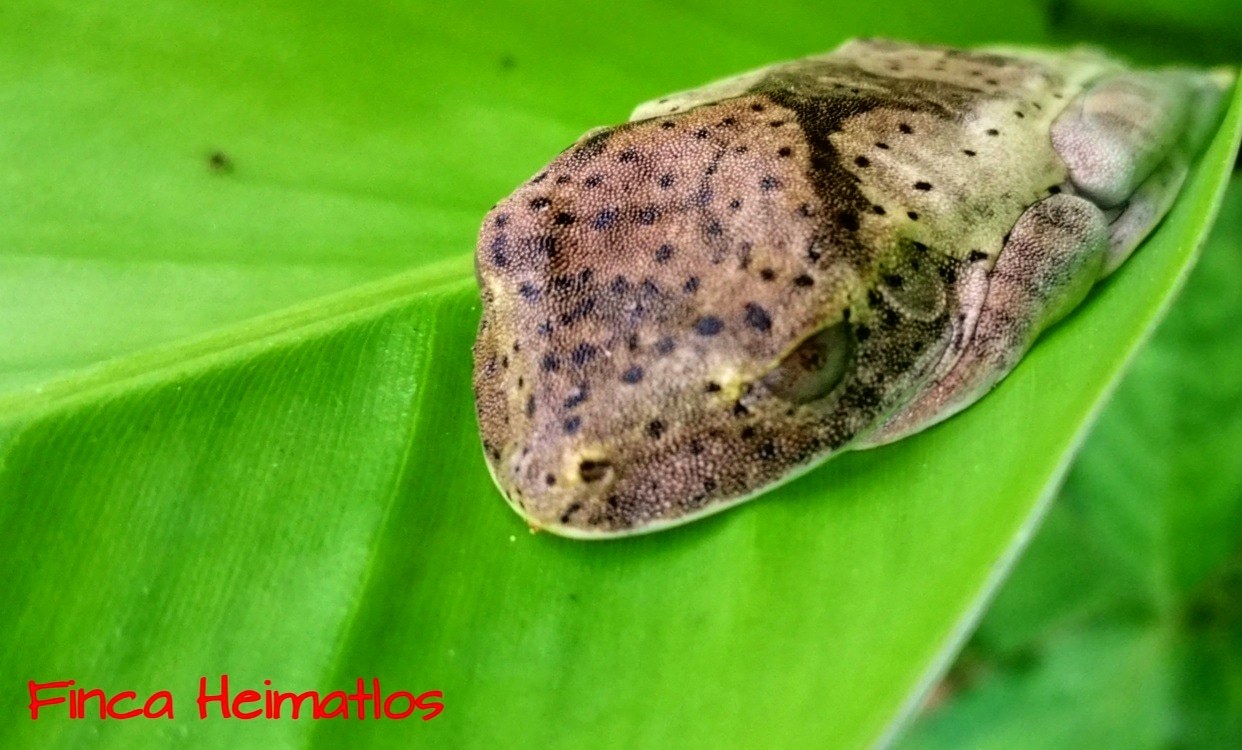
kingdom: Animalia
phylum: Chordata
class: Amphibia
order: Anura
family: Hylidae
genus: Boana
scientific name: Boana appendiculata
